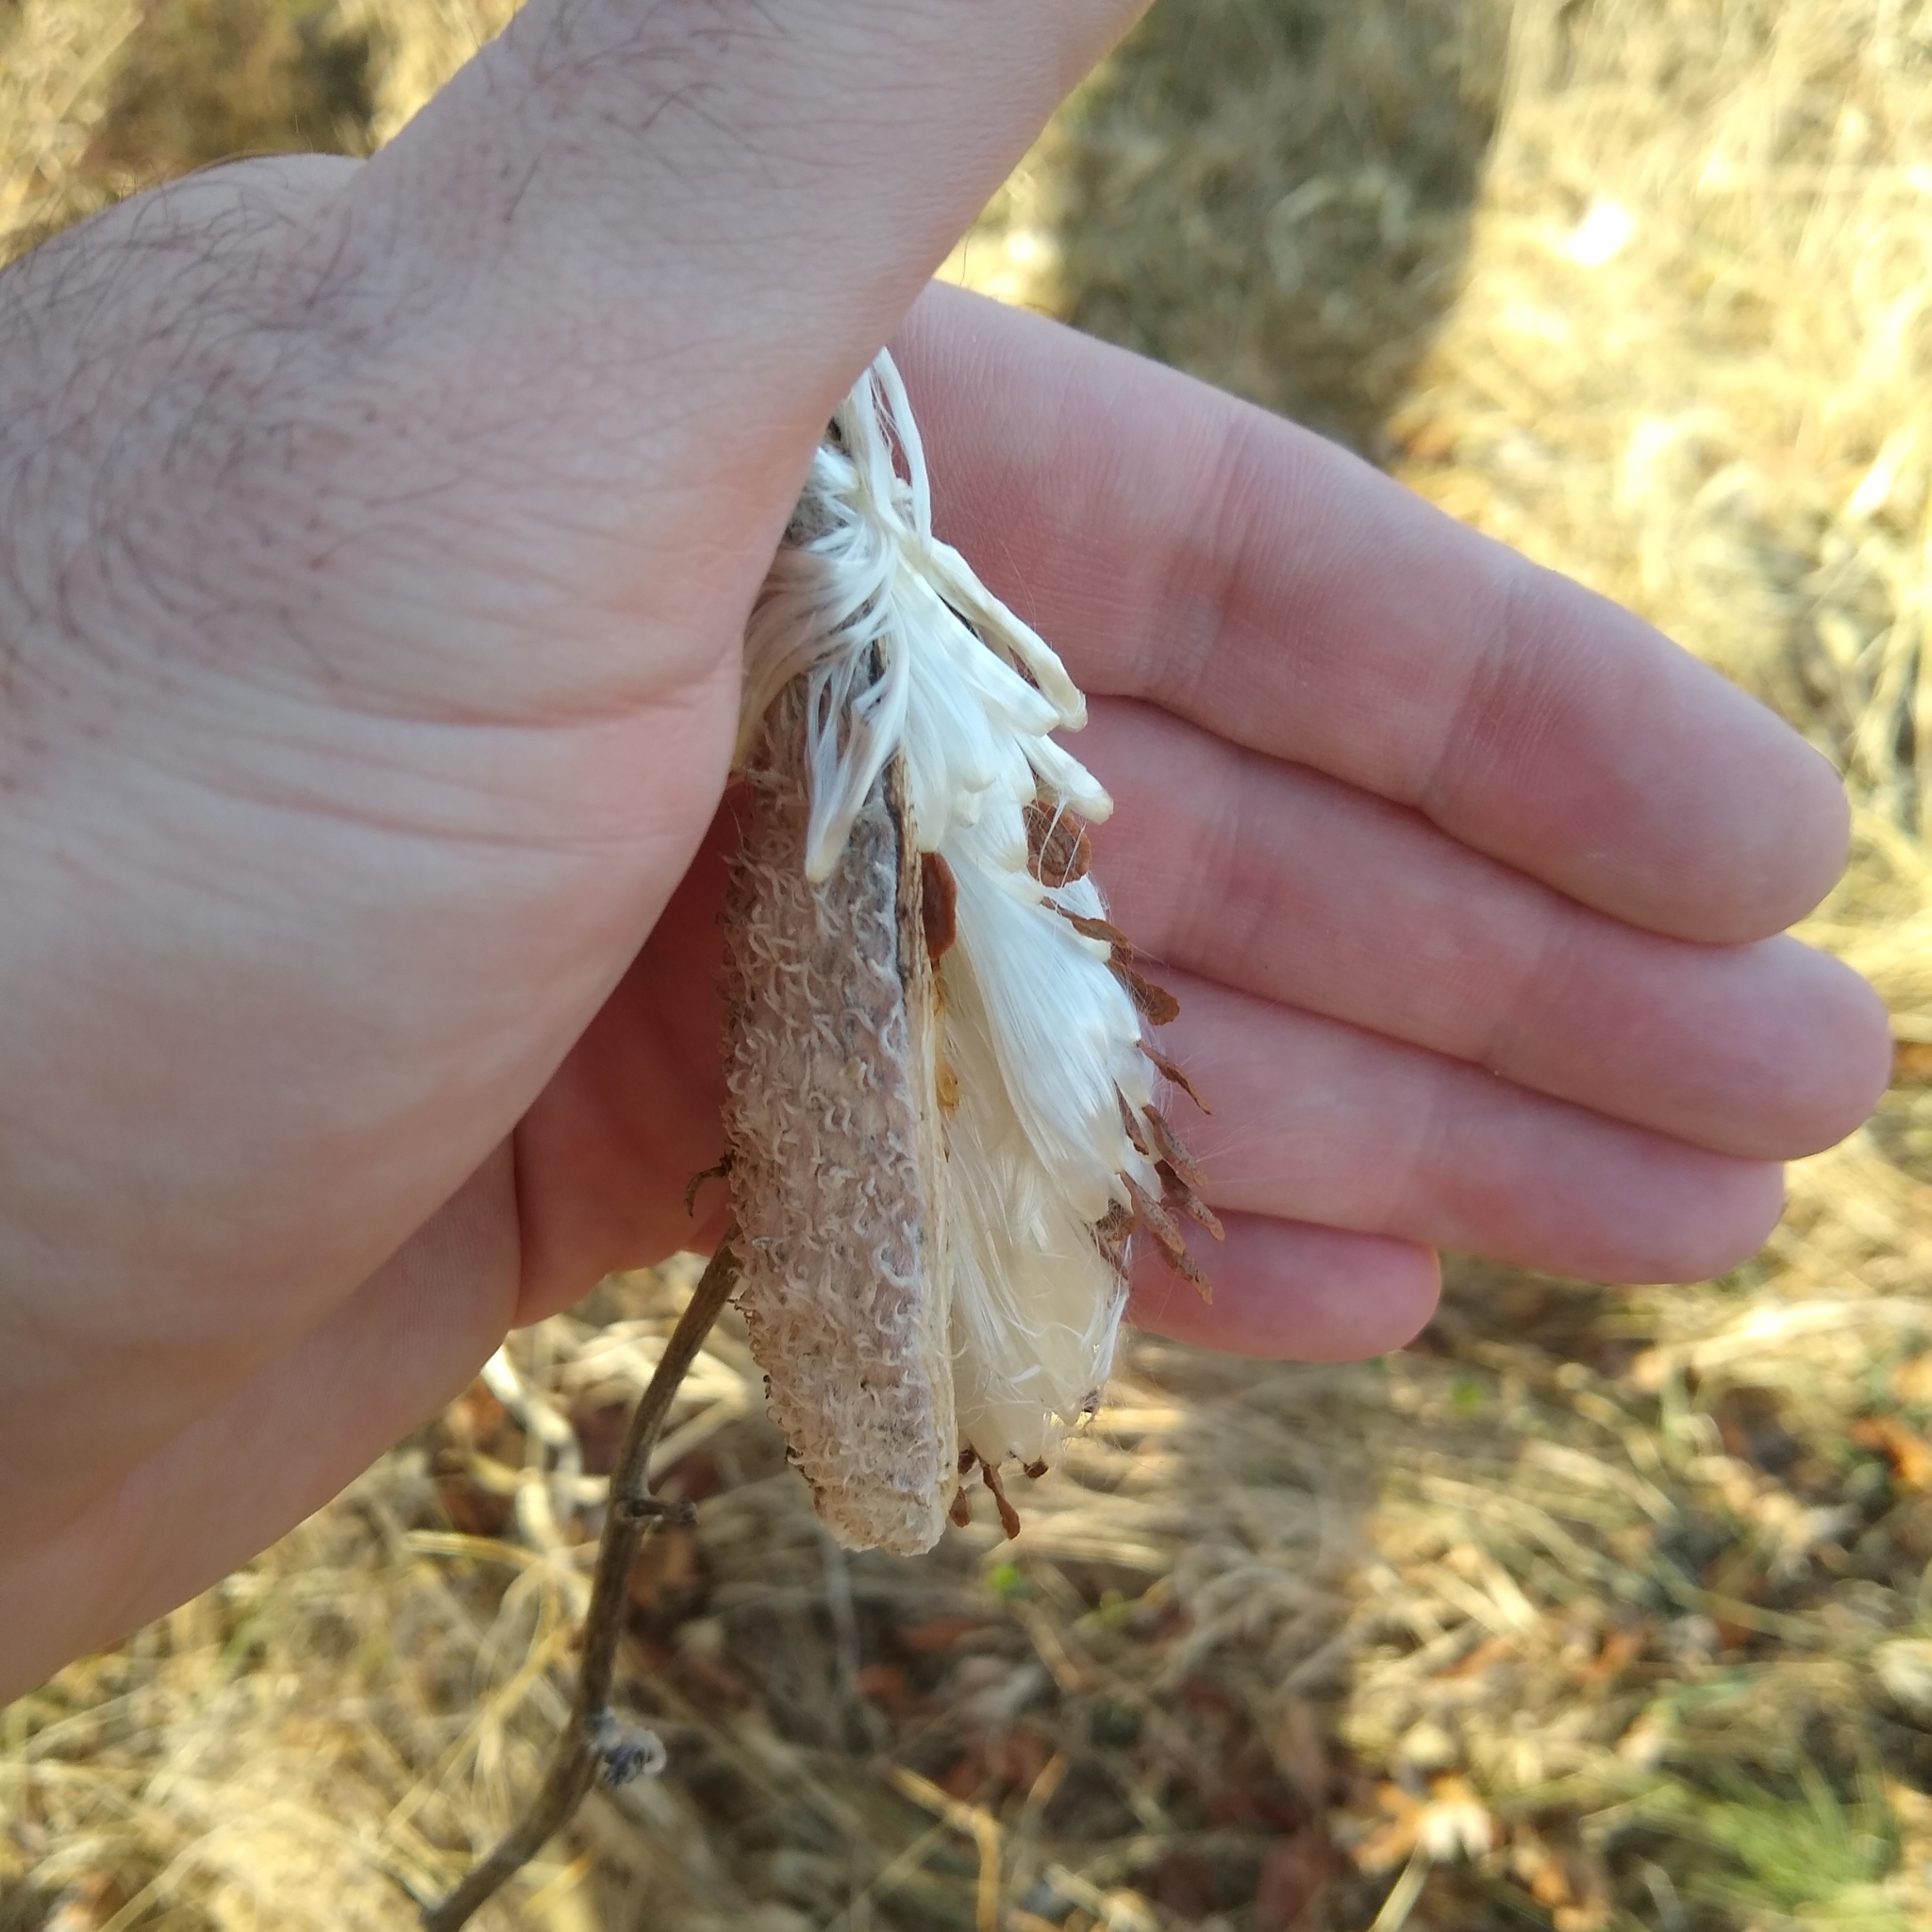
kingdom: Plantae
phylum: Tracheophyta
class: Magnoliopsida
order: Gentianales
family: Apocynaceae
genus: Asclepias
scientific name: Asclepias syriaca
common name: Common milkweed
